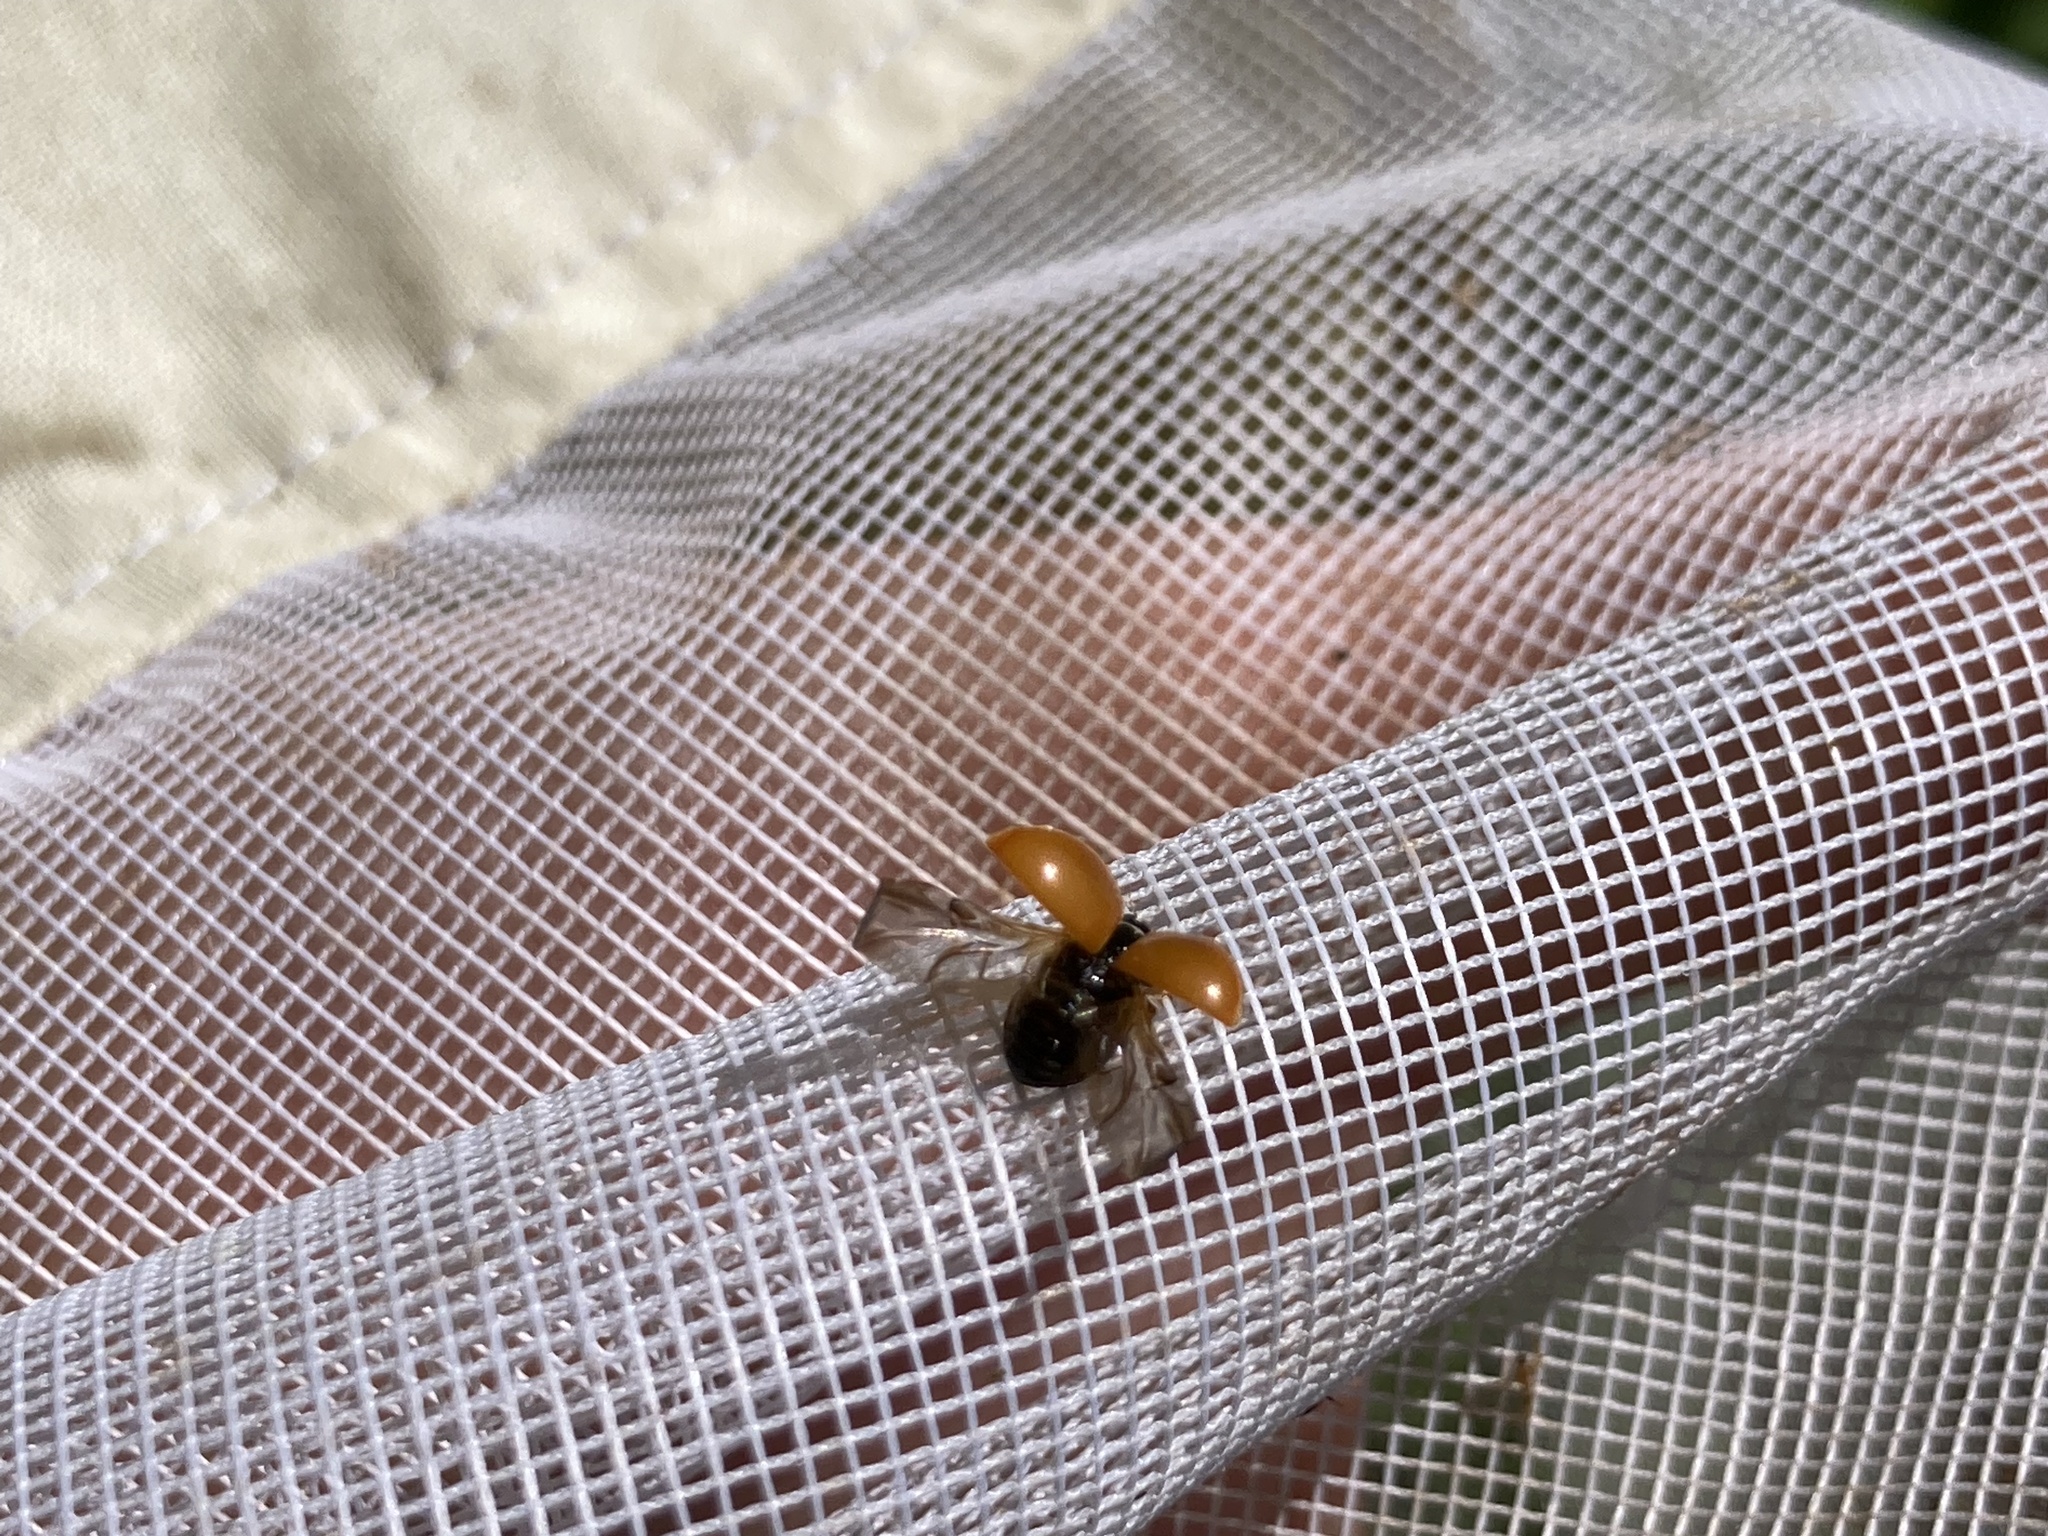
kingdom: Animalia
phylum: Arthropoda
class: Insecta
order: Coleoptera
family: Coccinellidae
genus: Cycloneda
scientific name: Cycloneda munda
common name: Polished lady beetle
